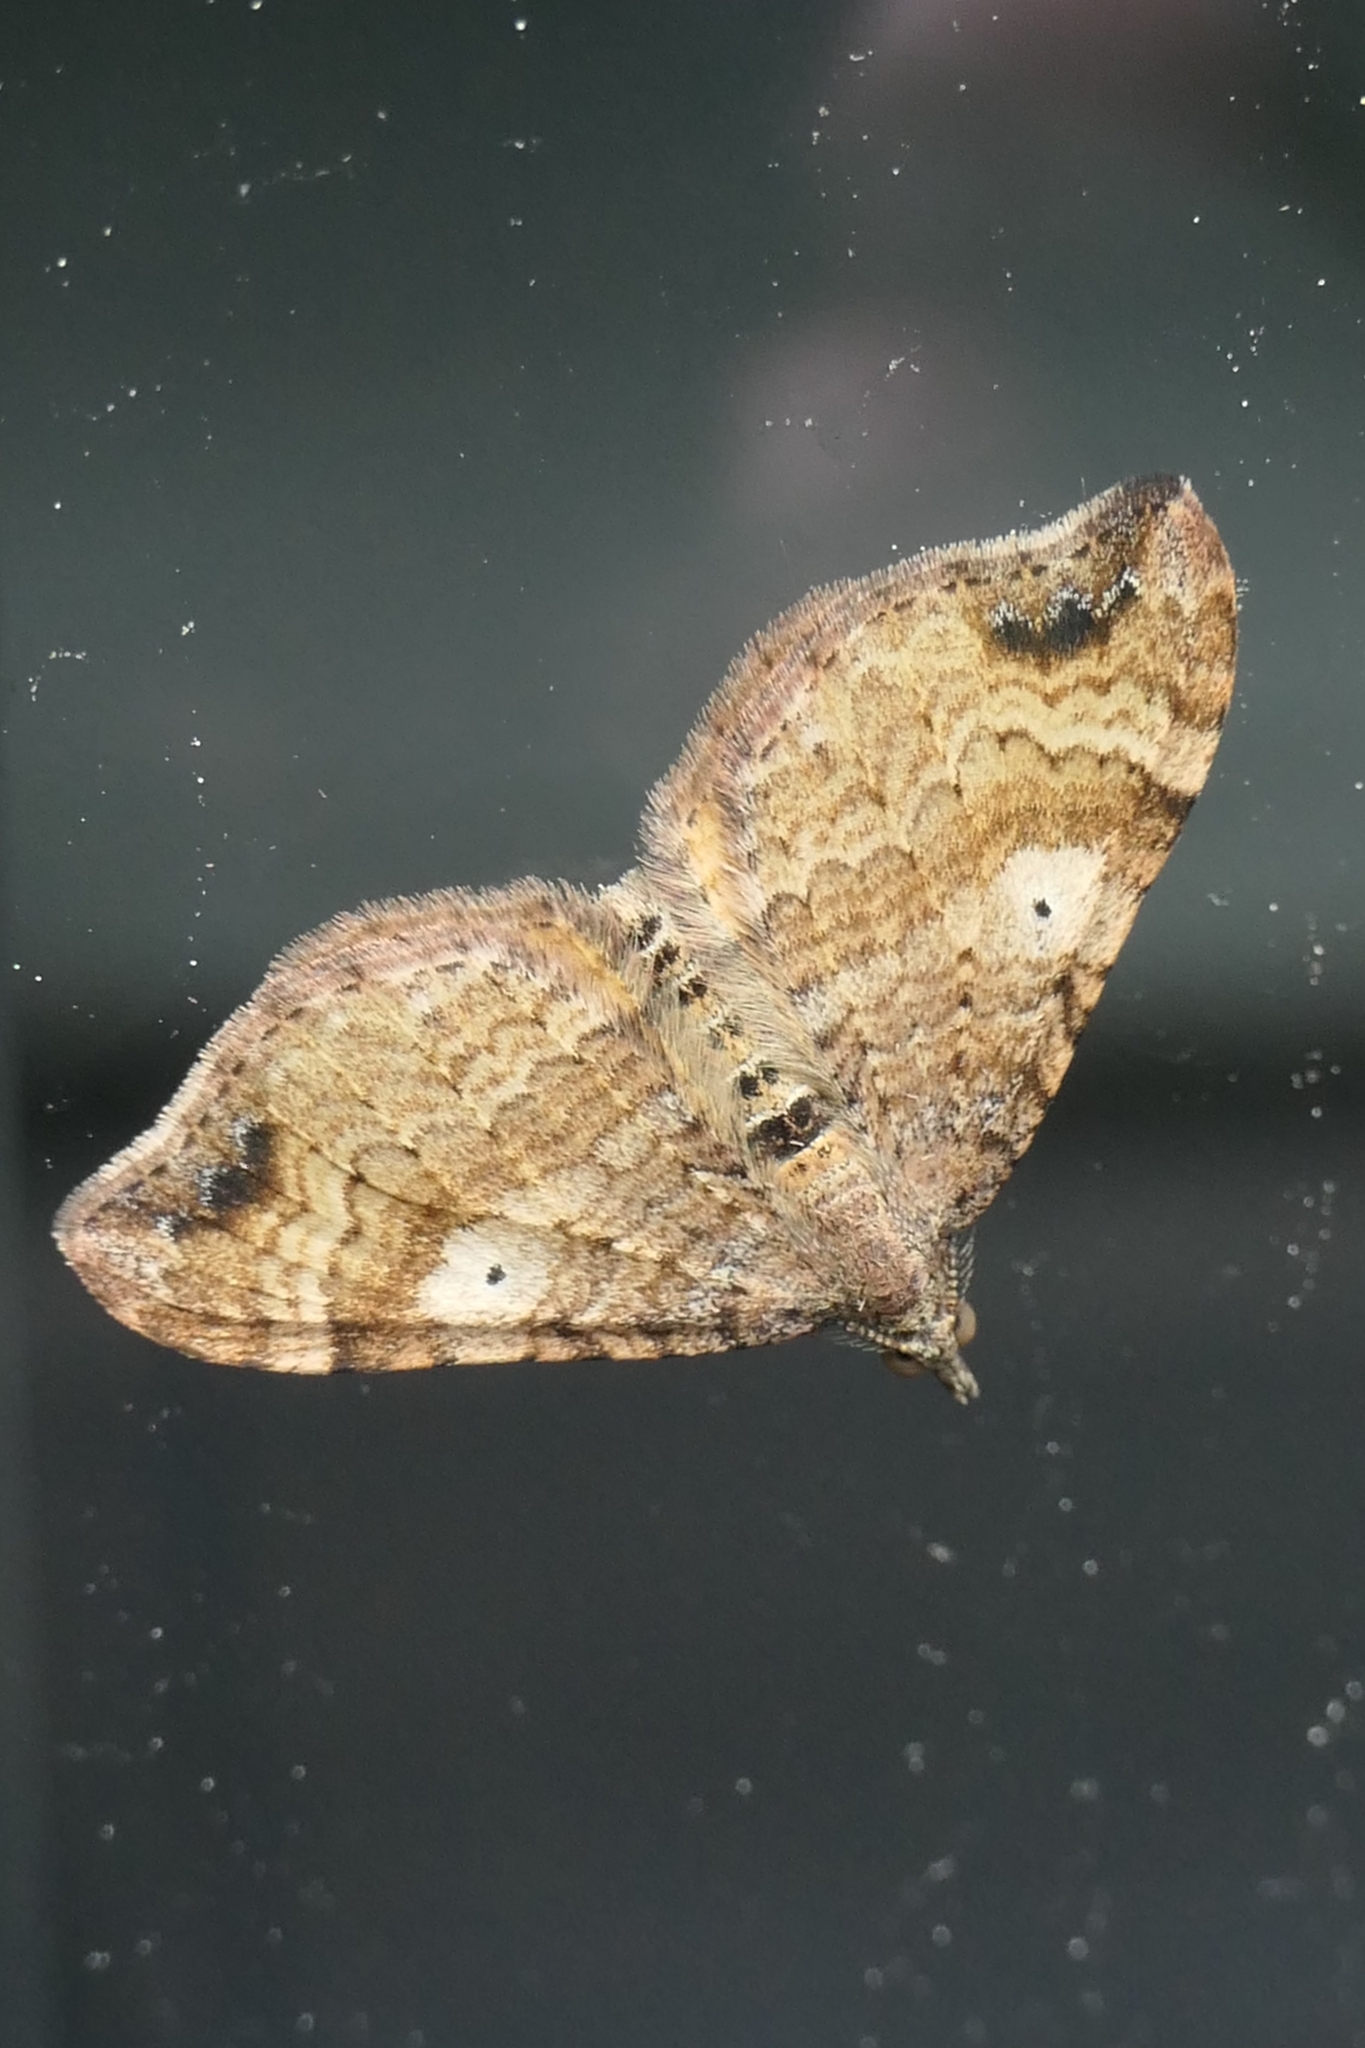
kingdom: Animalia
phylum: Arthropoda
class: Insecta
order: Lepidoptera
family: Geometridae
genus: Homodotis
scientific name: Homodotis megaspilata
